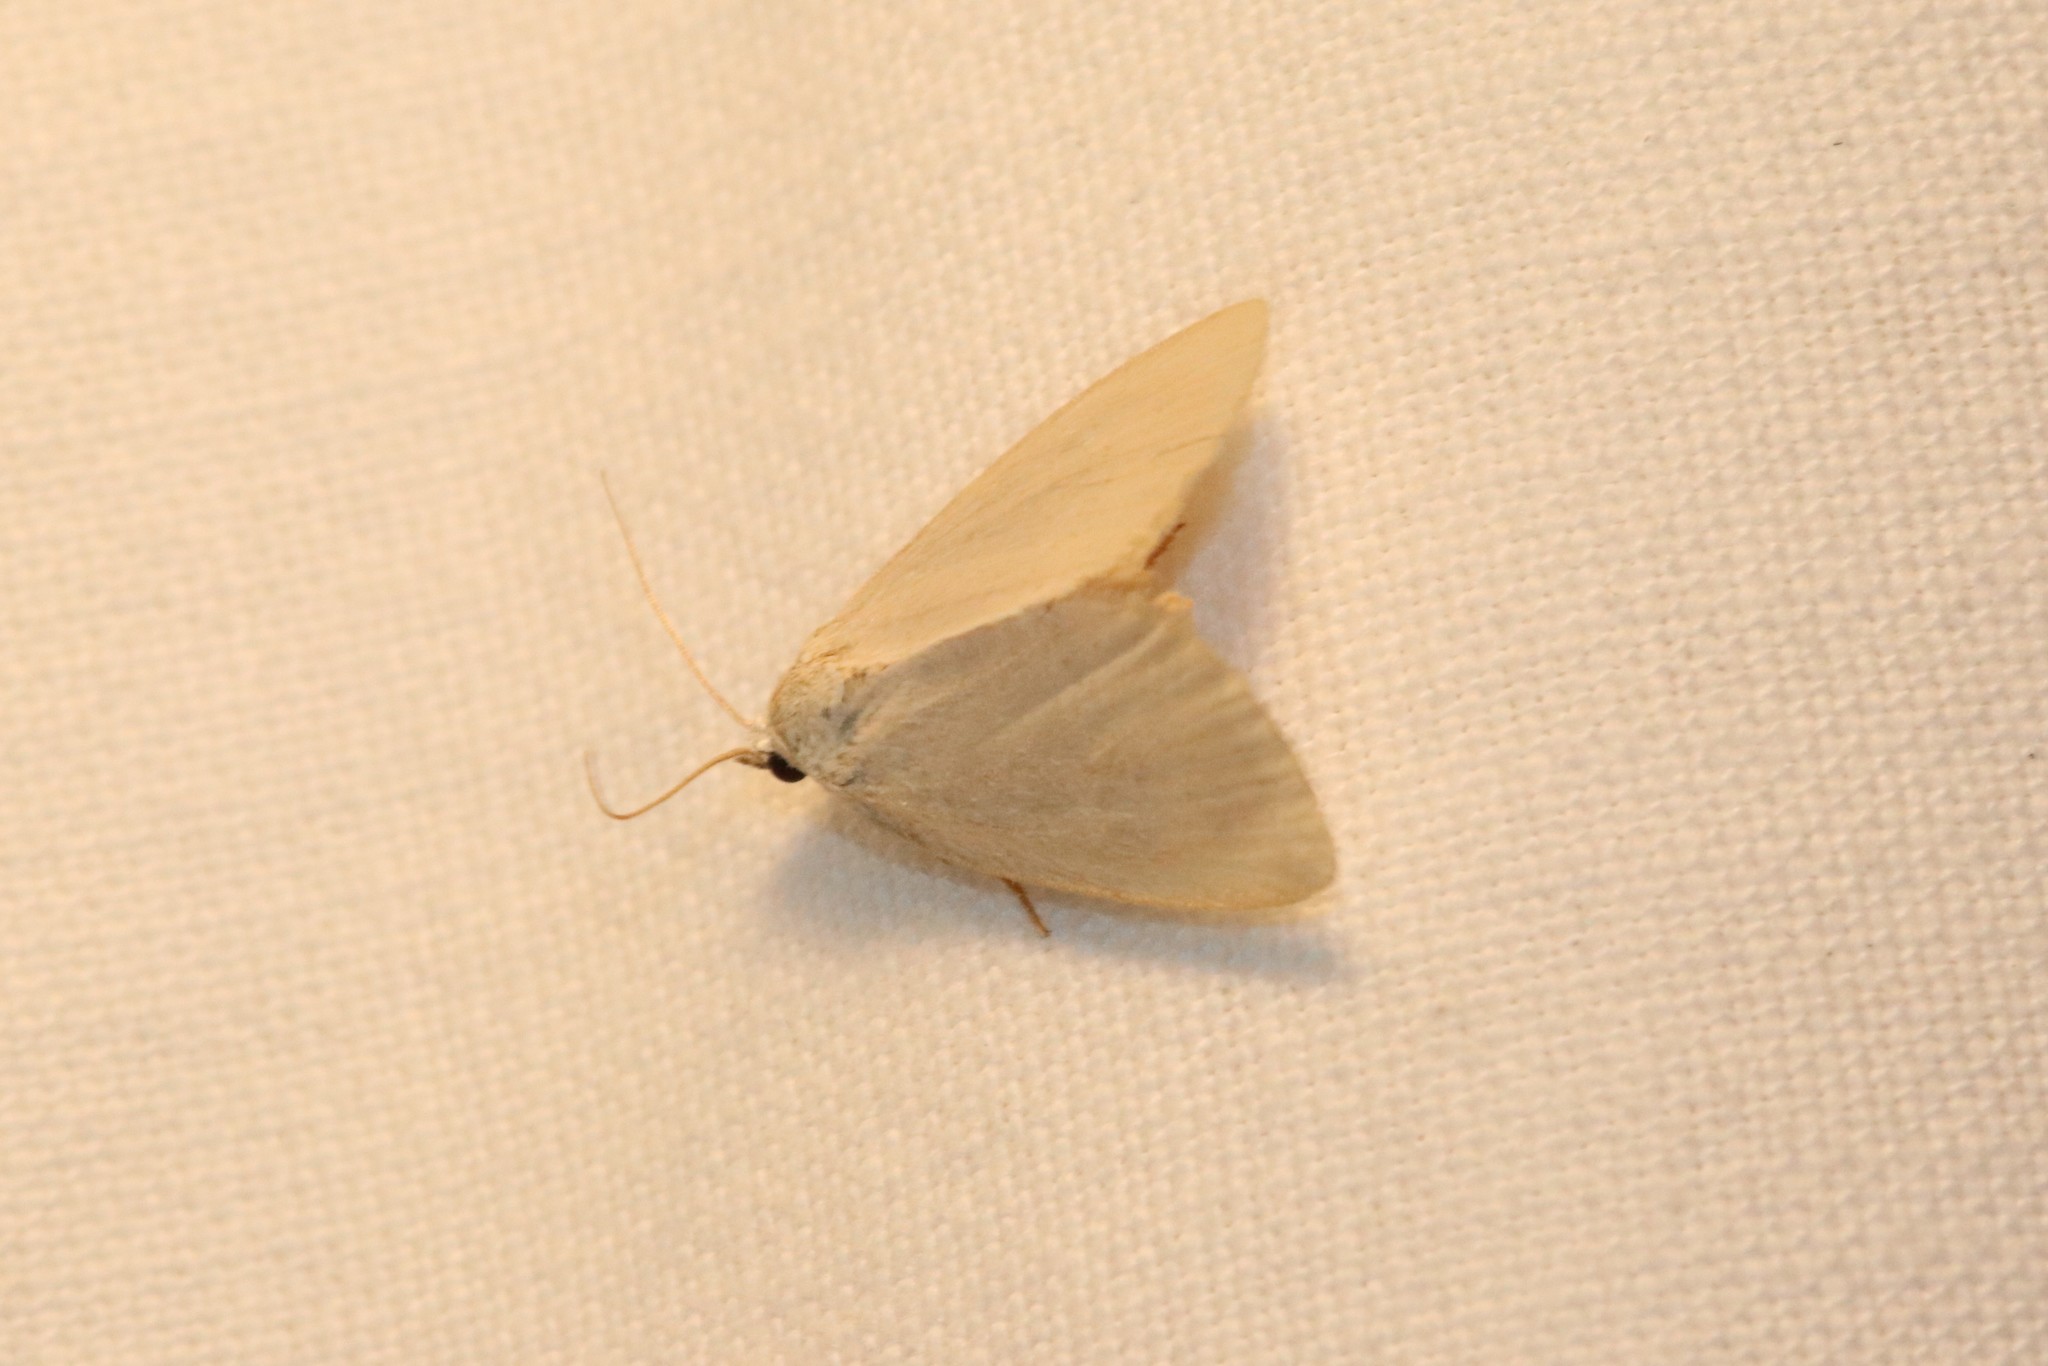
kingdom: Animalia
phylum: Arthropoda
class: Insecta
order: Lepidoptera
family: Noctuidae
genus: Protodeltote
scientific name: Protodeltote albidula
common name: Pale glyph
